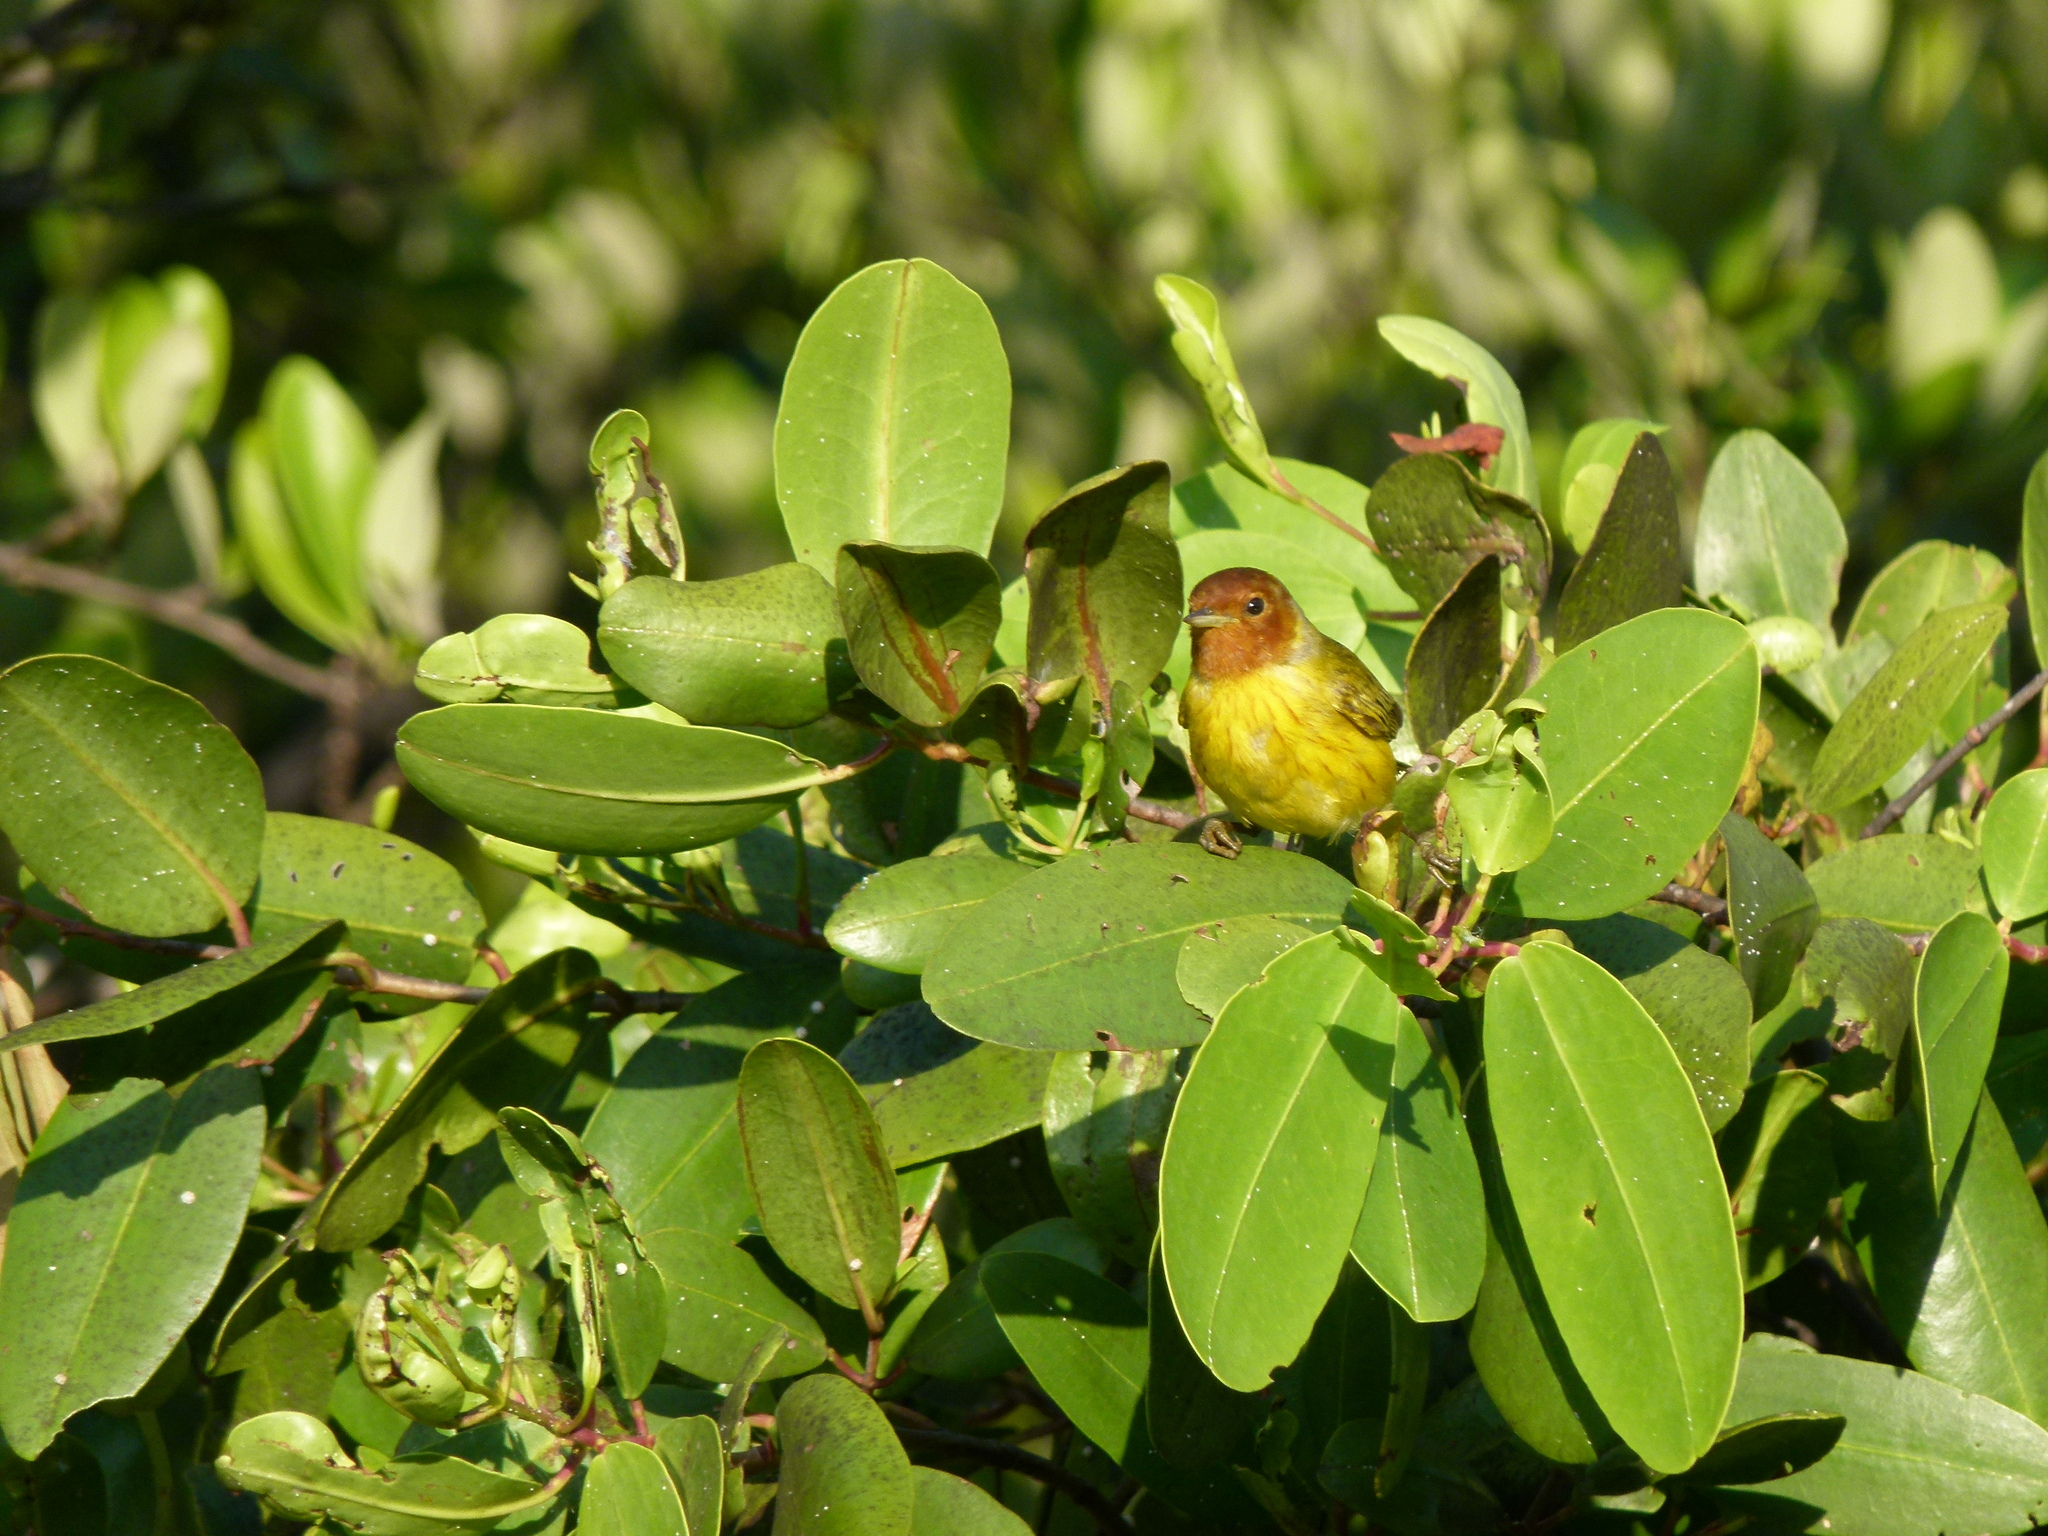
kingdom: Plantae
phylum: Tracheophyta
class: Magnoliopsida
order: Myrtales
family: Combretaceae
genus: Laguncularia
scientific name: Laguncularia racemosa
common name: White mangrove
